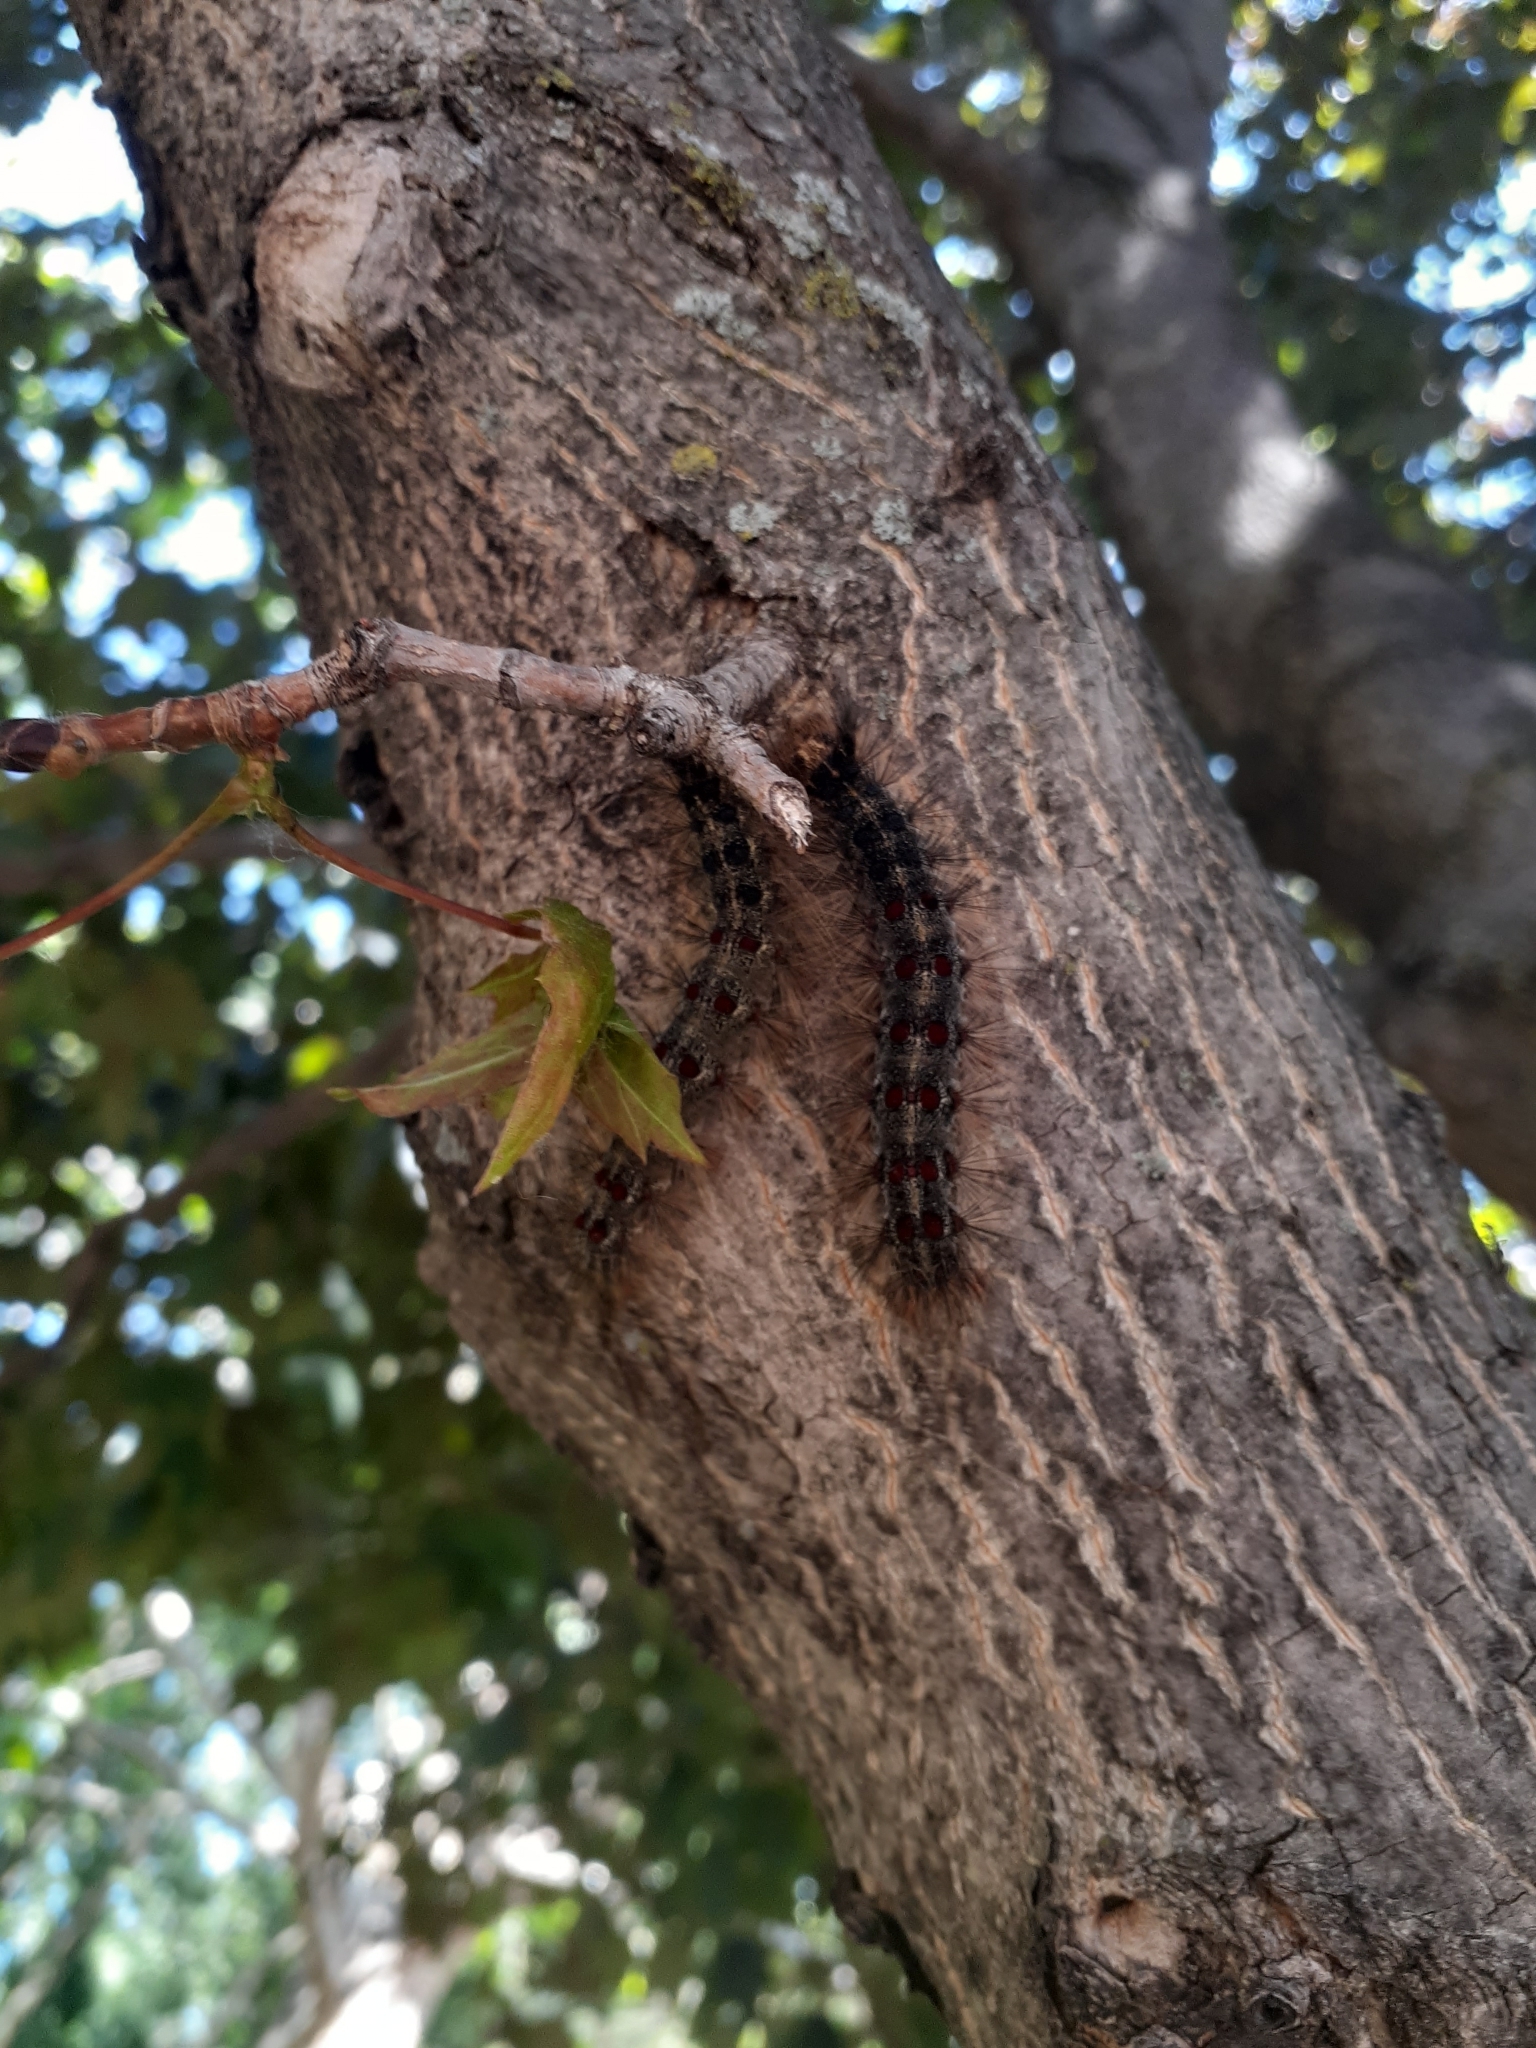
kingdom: Animalia
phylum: Arthropoda
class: Insecta
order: Lepidoptera
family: Erebidae
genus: Lymantria
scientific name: Lymantria dispar
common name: Gypsy moth
